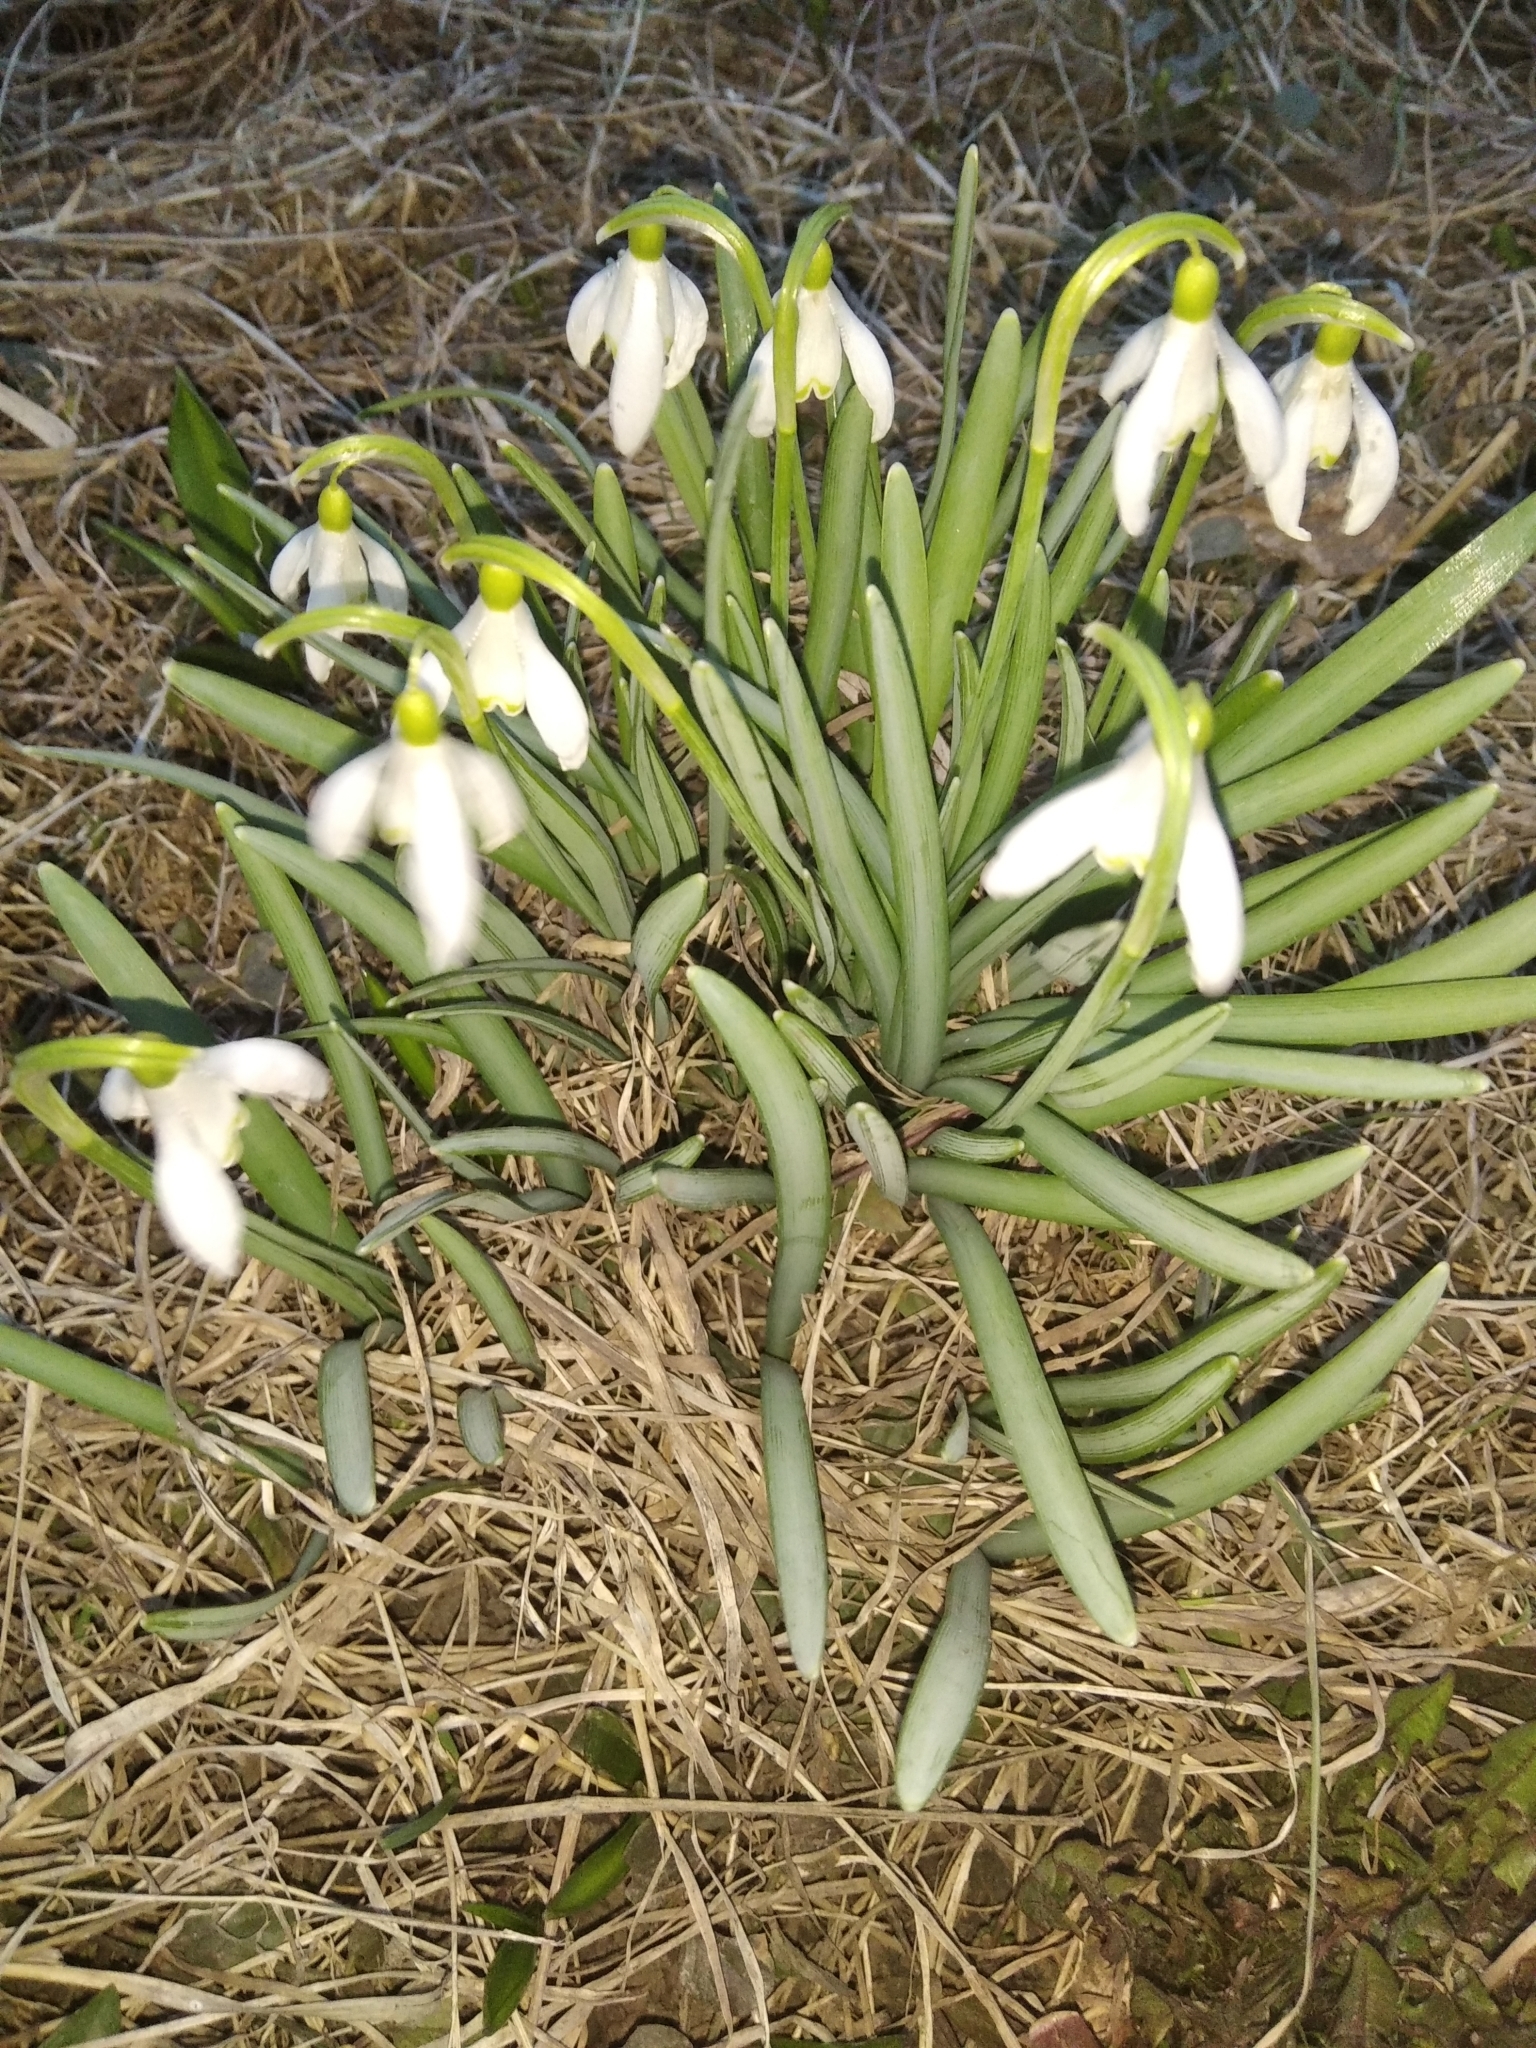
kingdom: Plantae
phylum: Tracheophyta
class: Liliopsida
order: Asparagales
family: Amaryllidaceae
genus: Galanthus
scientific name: Galanthus nivalis
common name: Snowdrop
